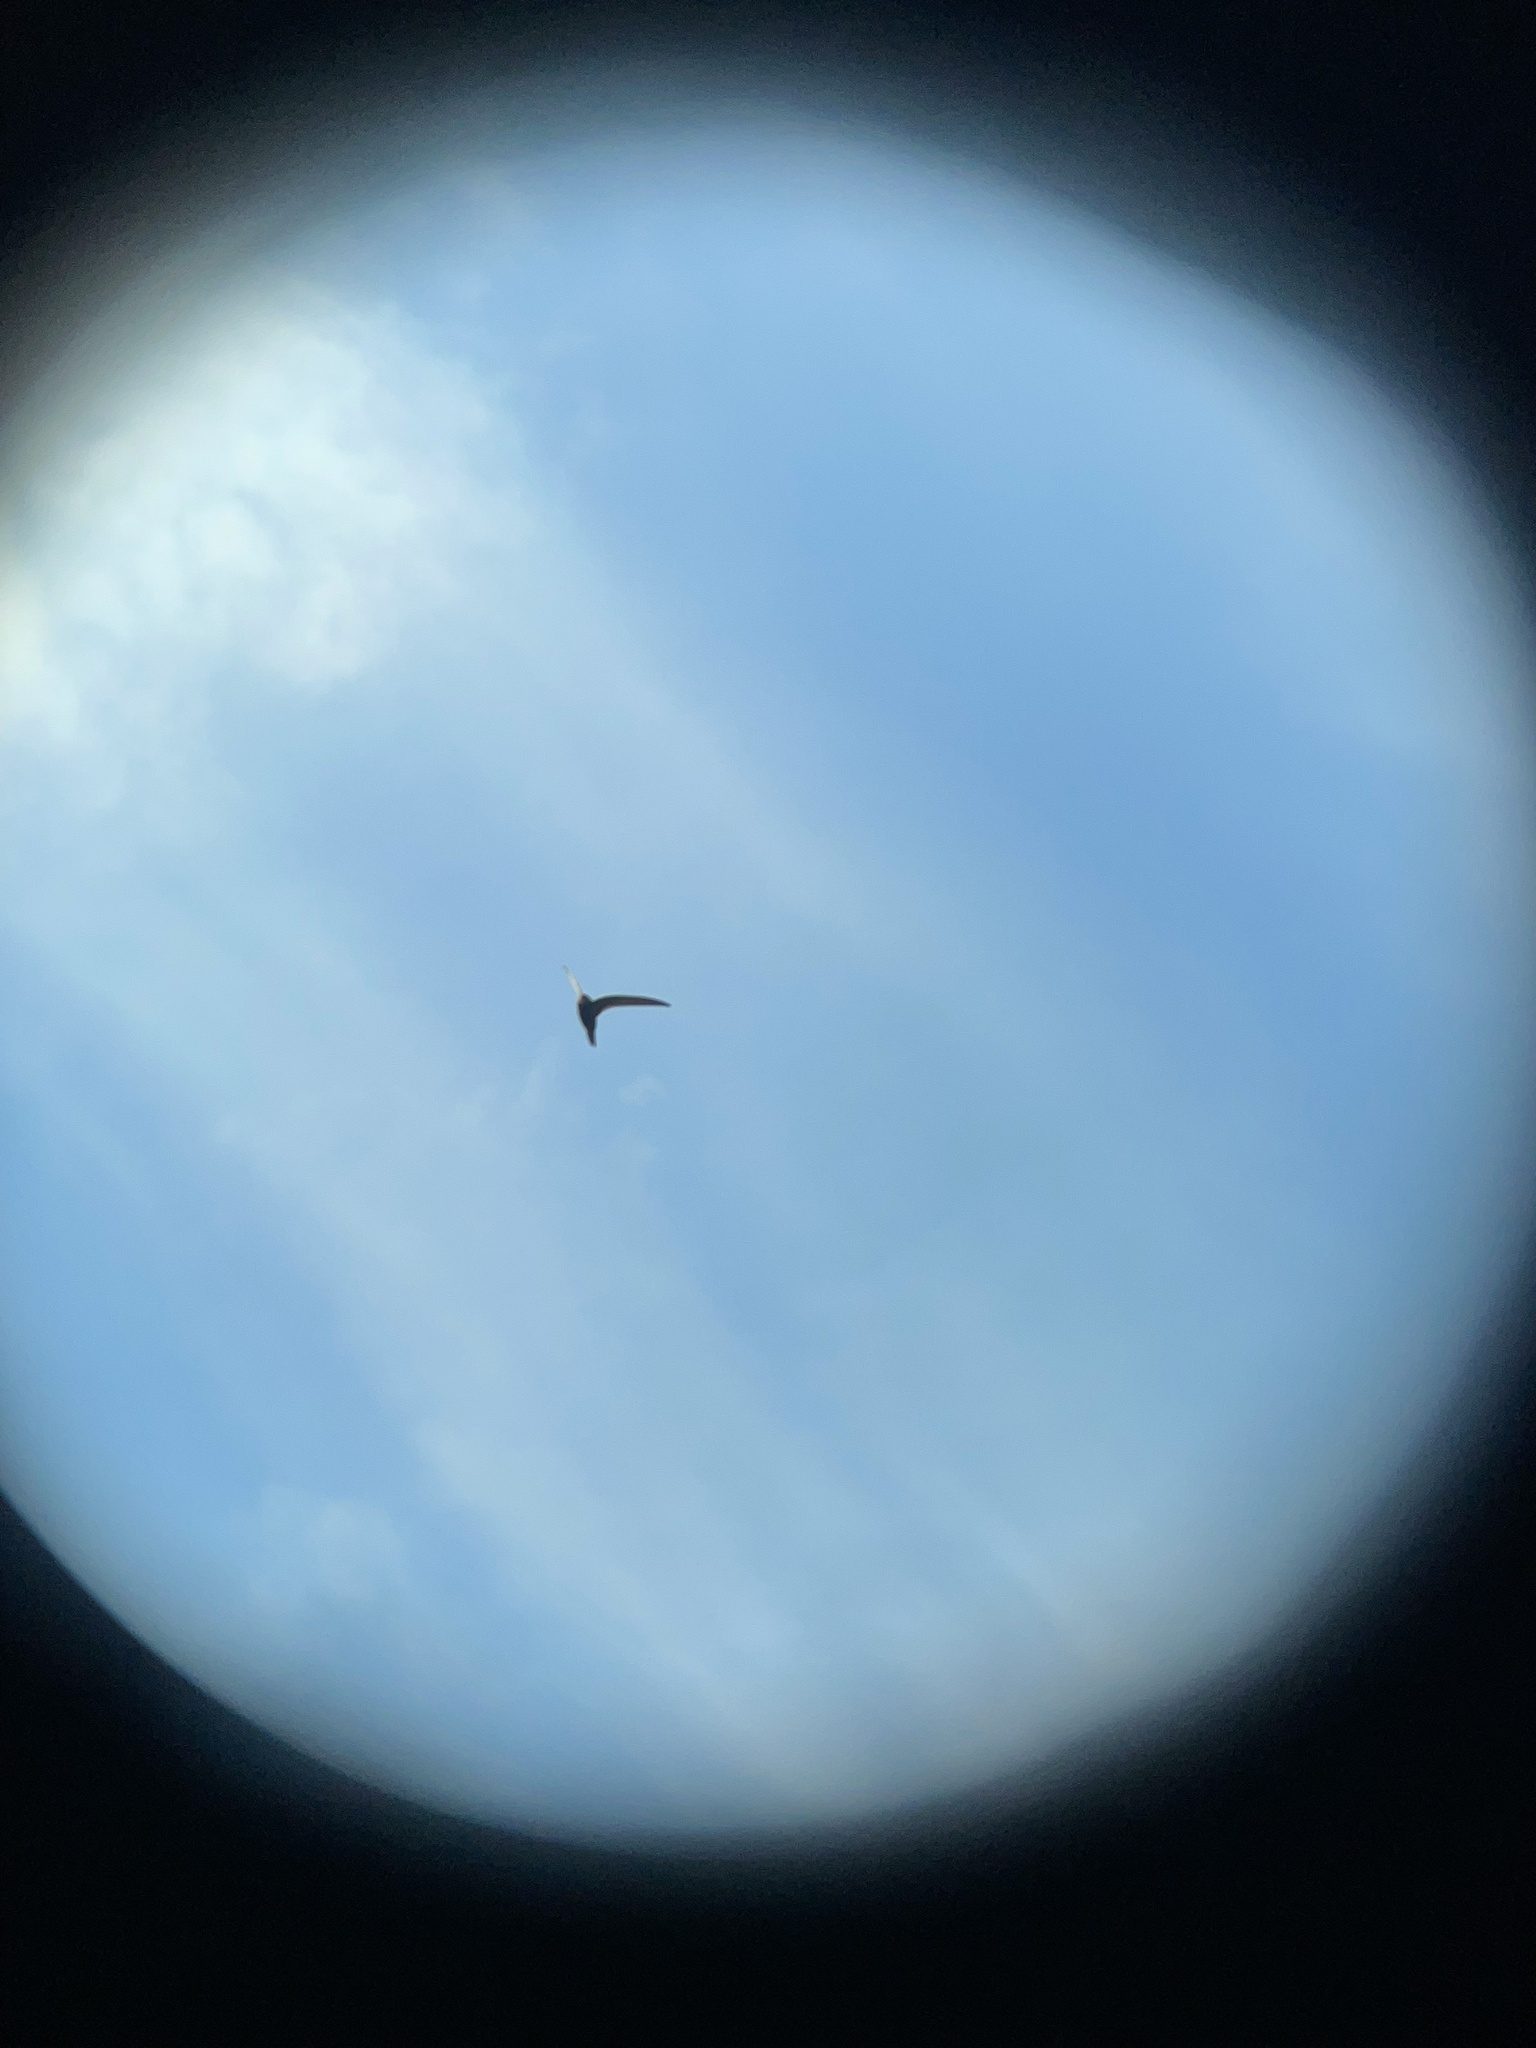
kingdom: Animalia
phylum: Chordata
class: Aves
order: Apodiformes
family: Apodidae
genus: Apus
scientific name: Apus apus
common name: Common swift
